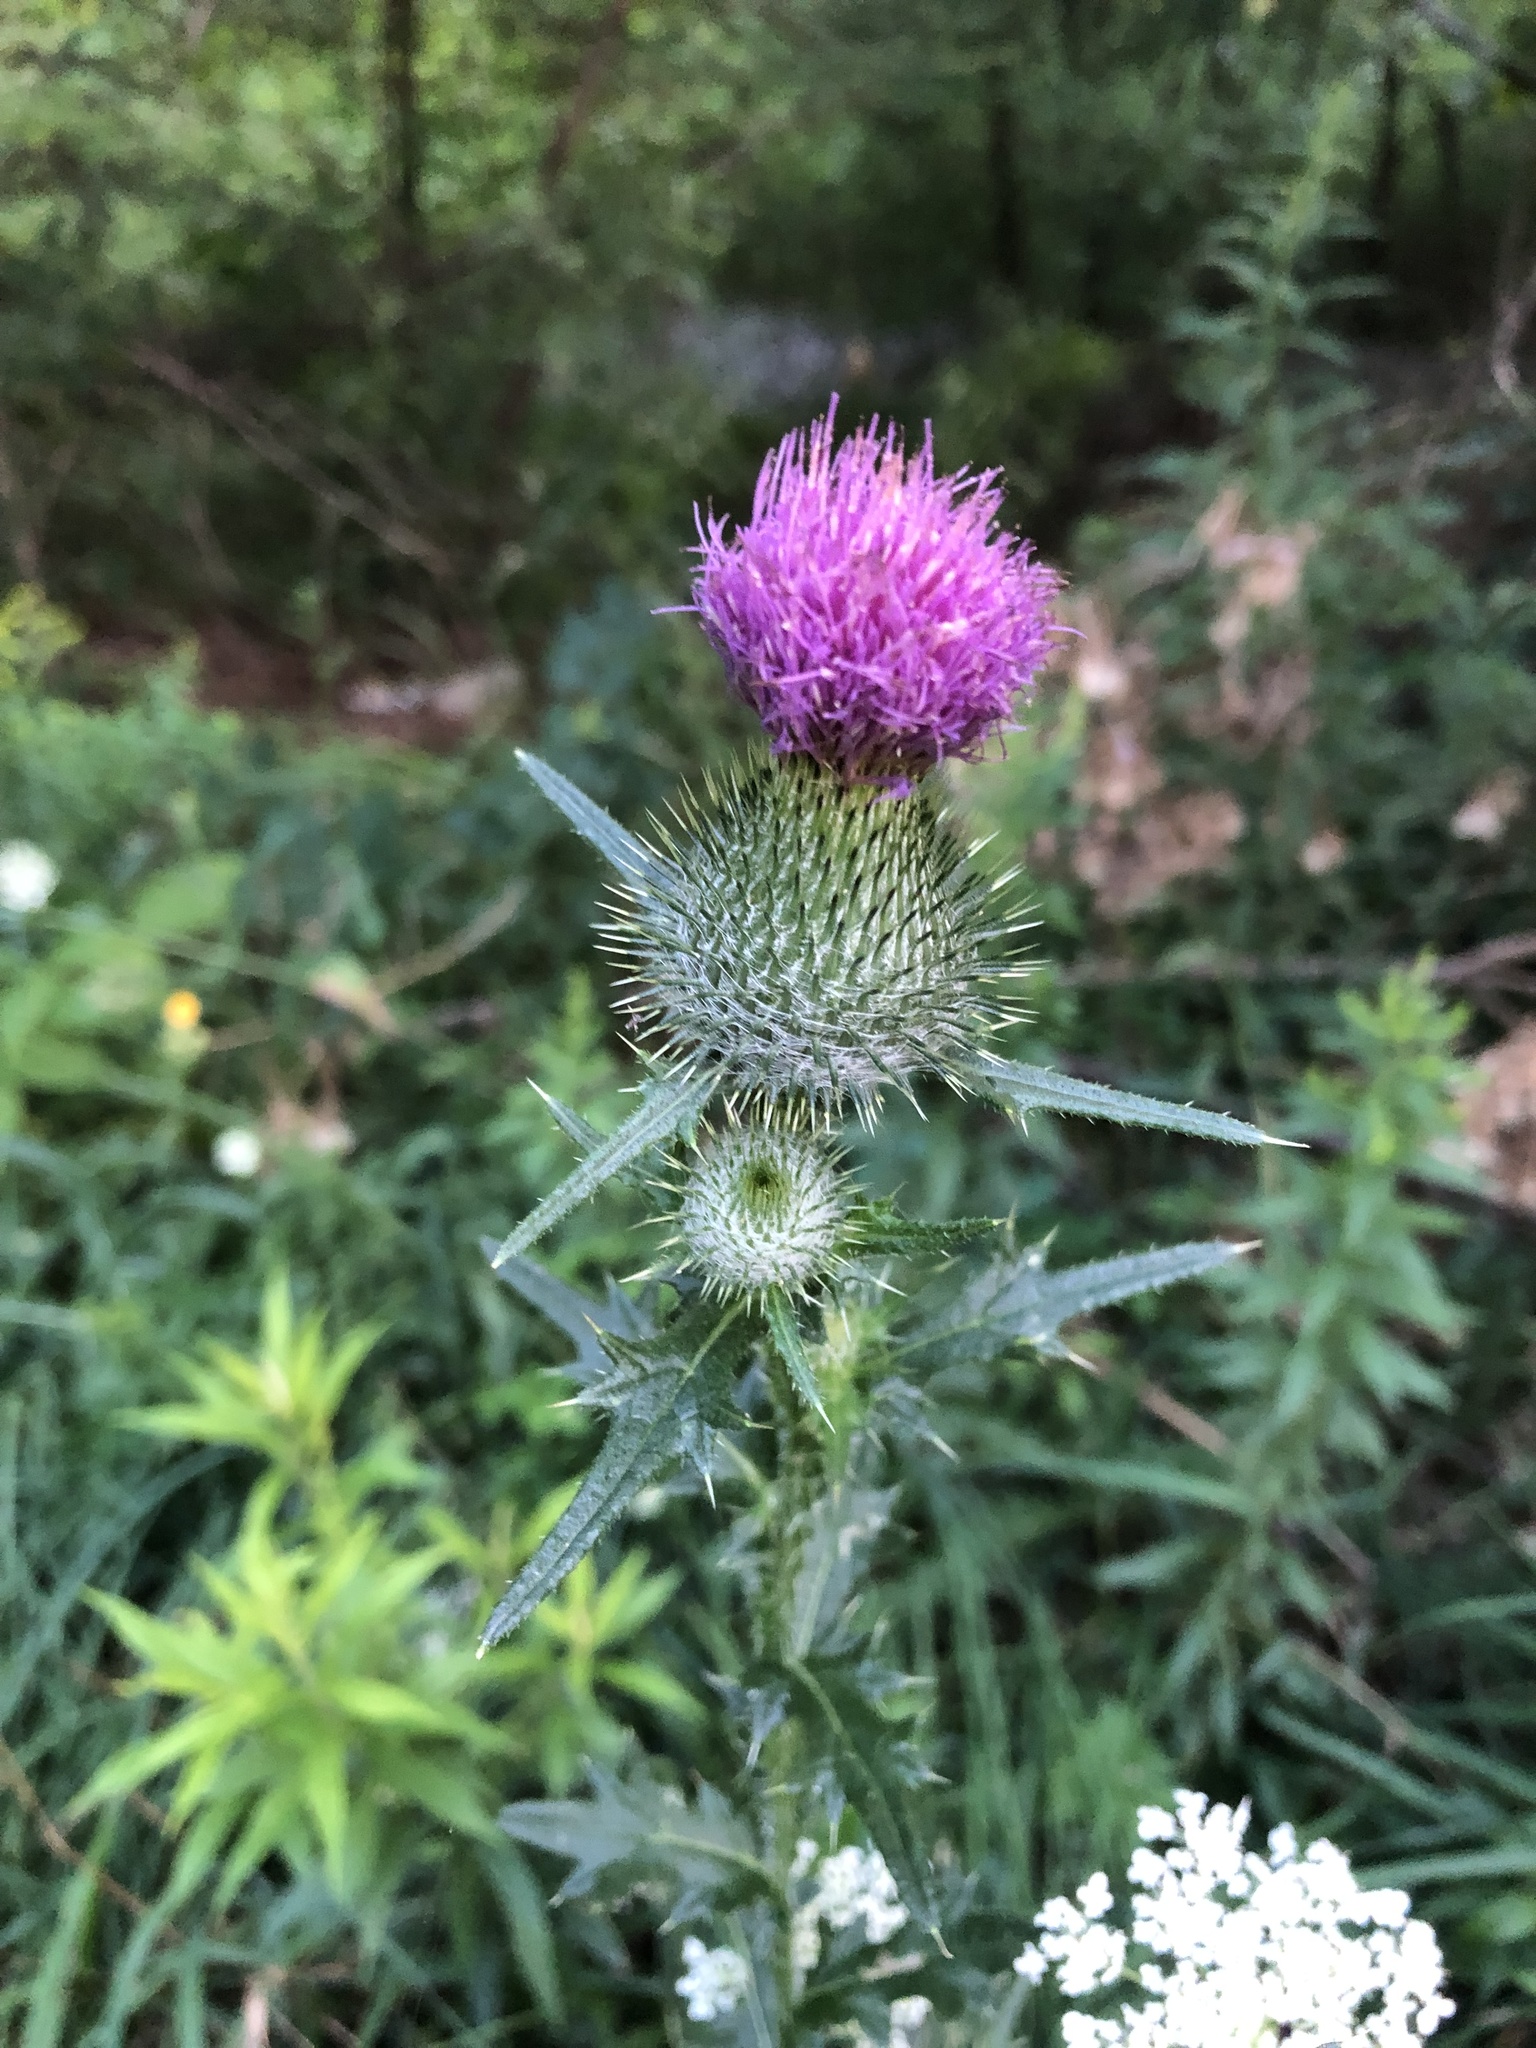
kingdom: Plantae
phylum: Tracheophyta
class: Magnoliopsida
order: Asterales
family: Asteraceae
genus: Cirsium
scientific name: Cirsium vulgare
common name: Bull thistle
